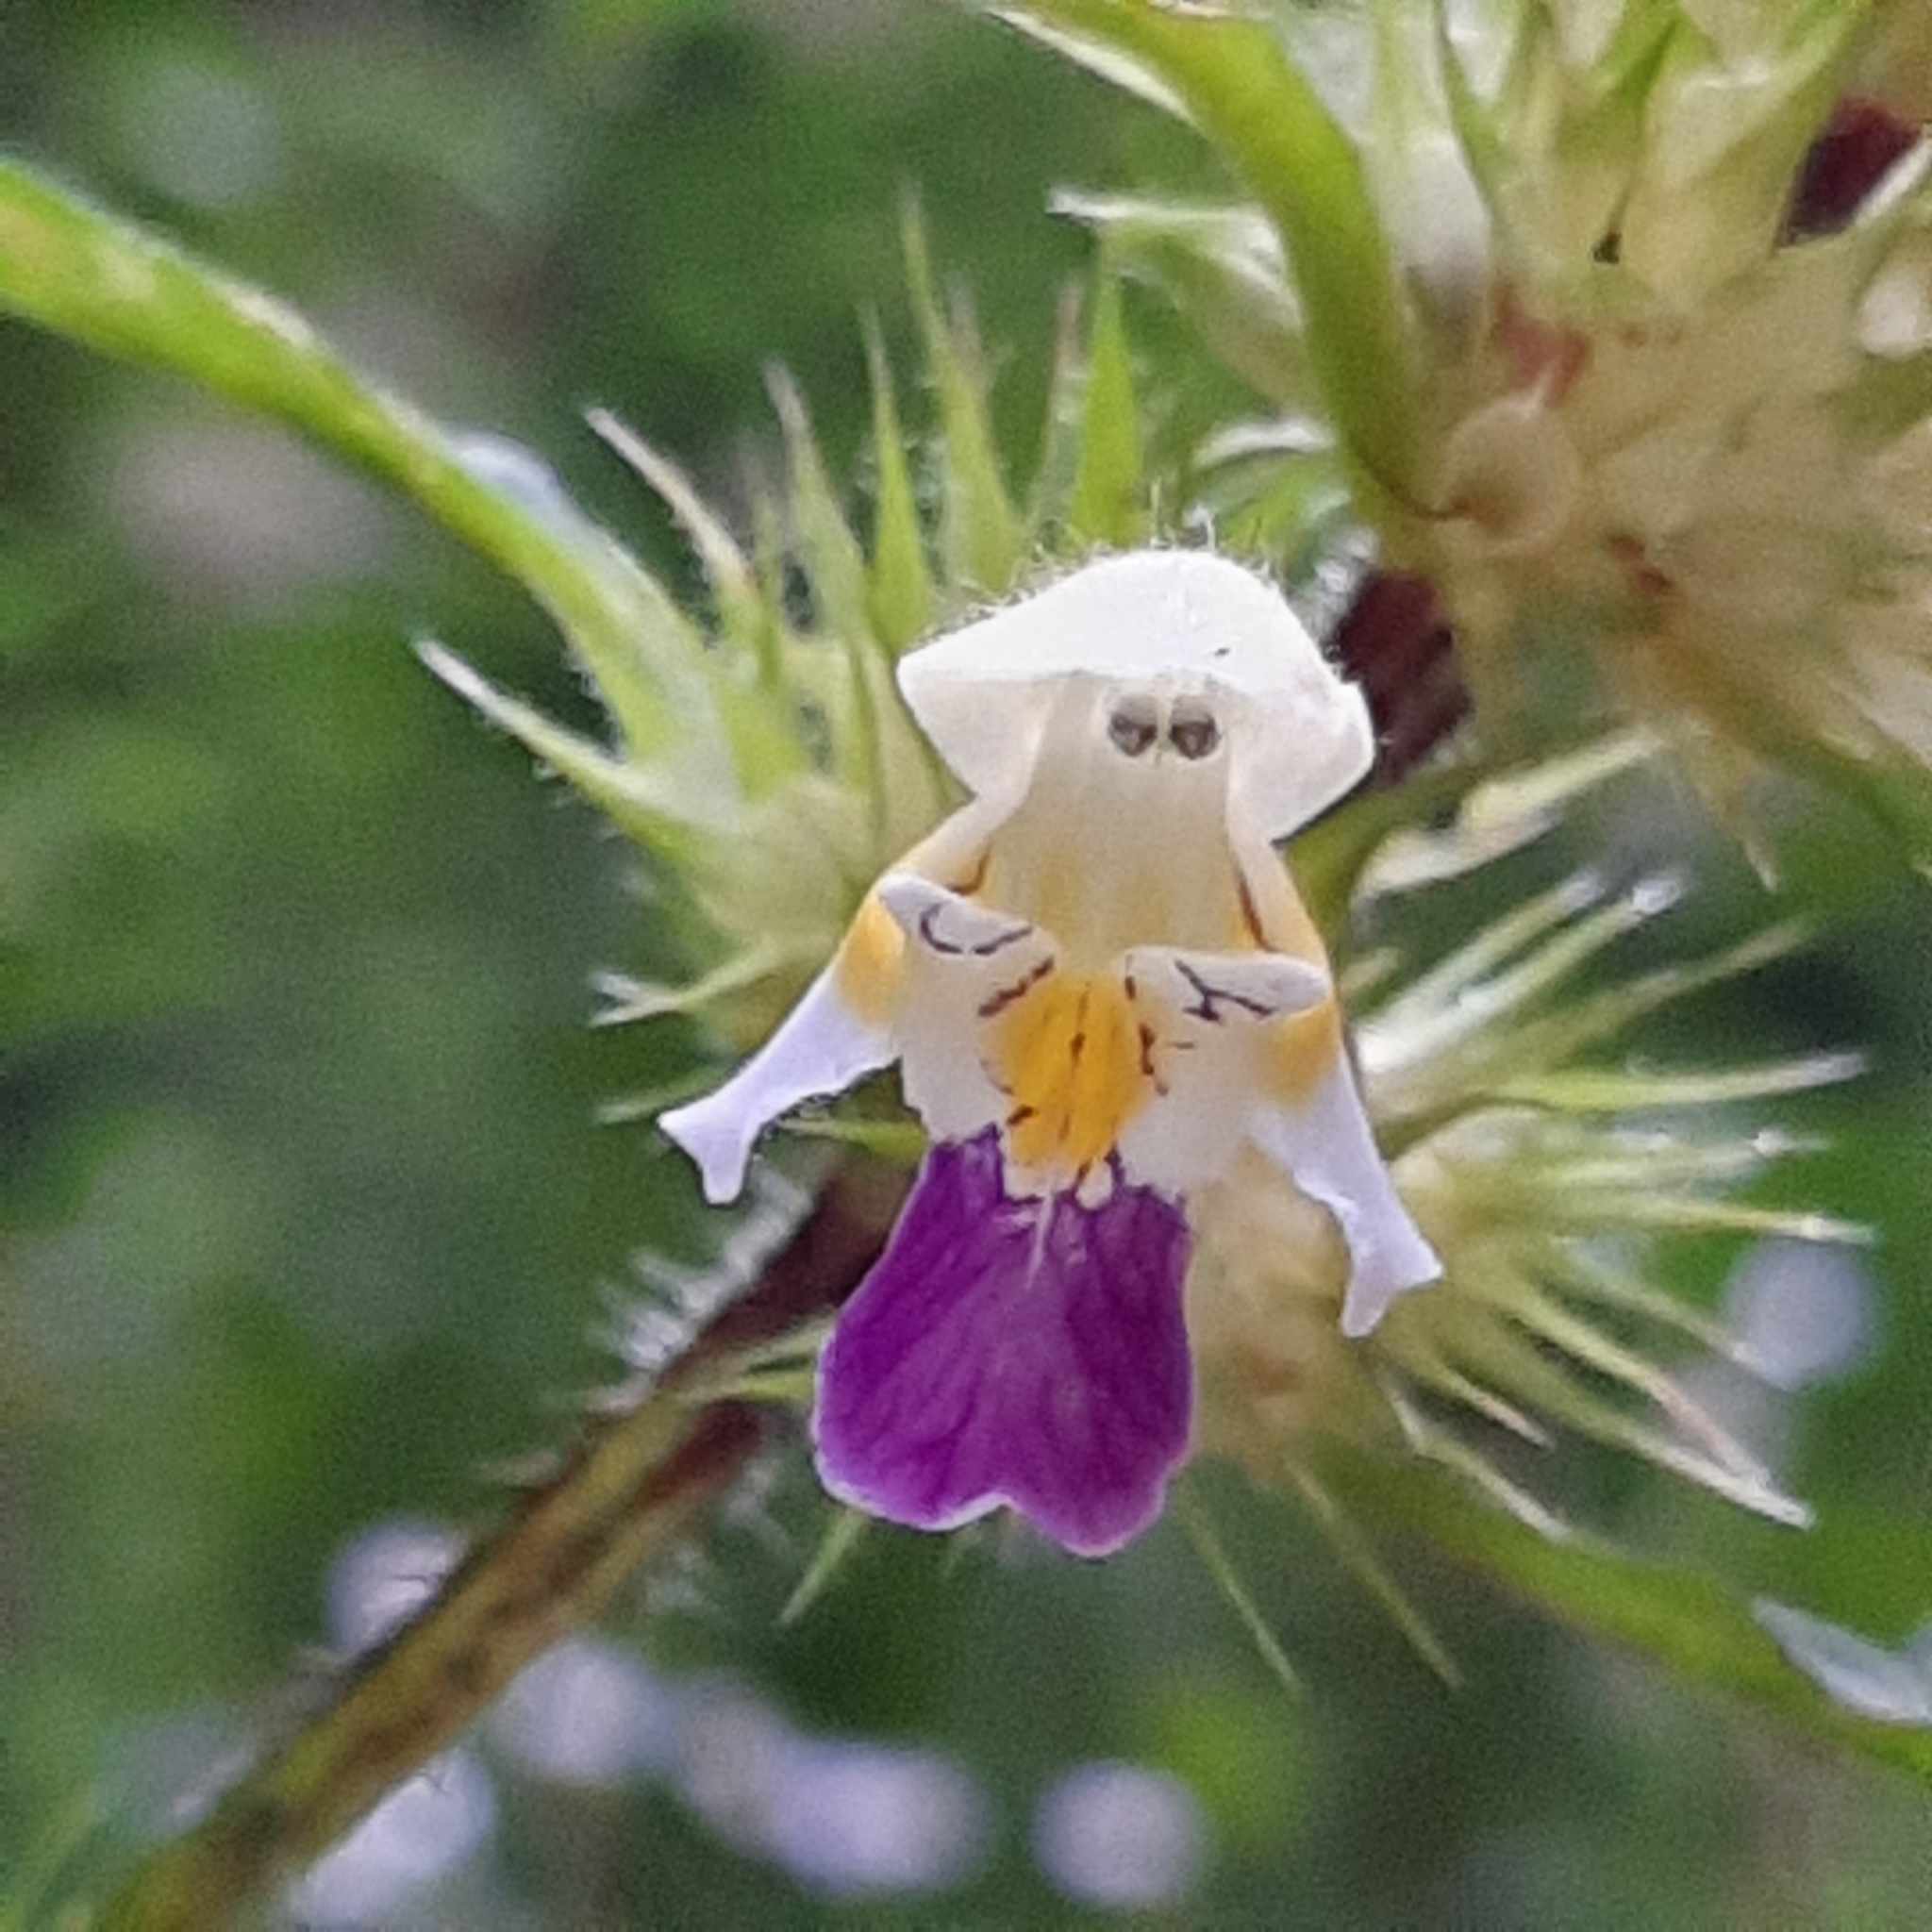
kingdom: Plantae
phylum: Tracheophyta
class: Magnoliopsida
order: Lamiales
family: Lamiaceae
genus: Galeopsis
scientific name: Galeopsis speciosa
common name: Large-flowered hemp-nettle
